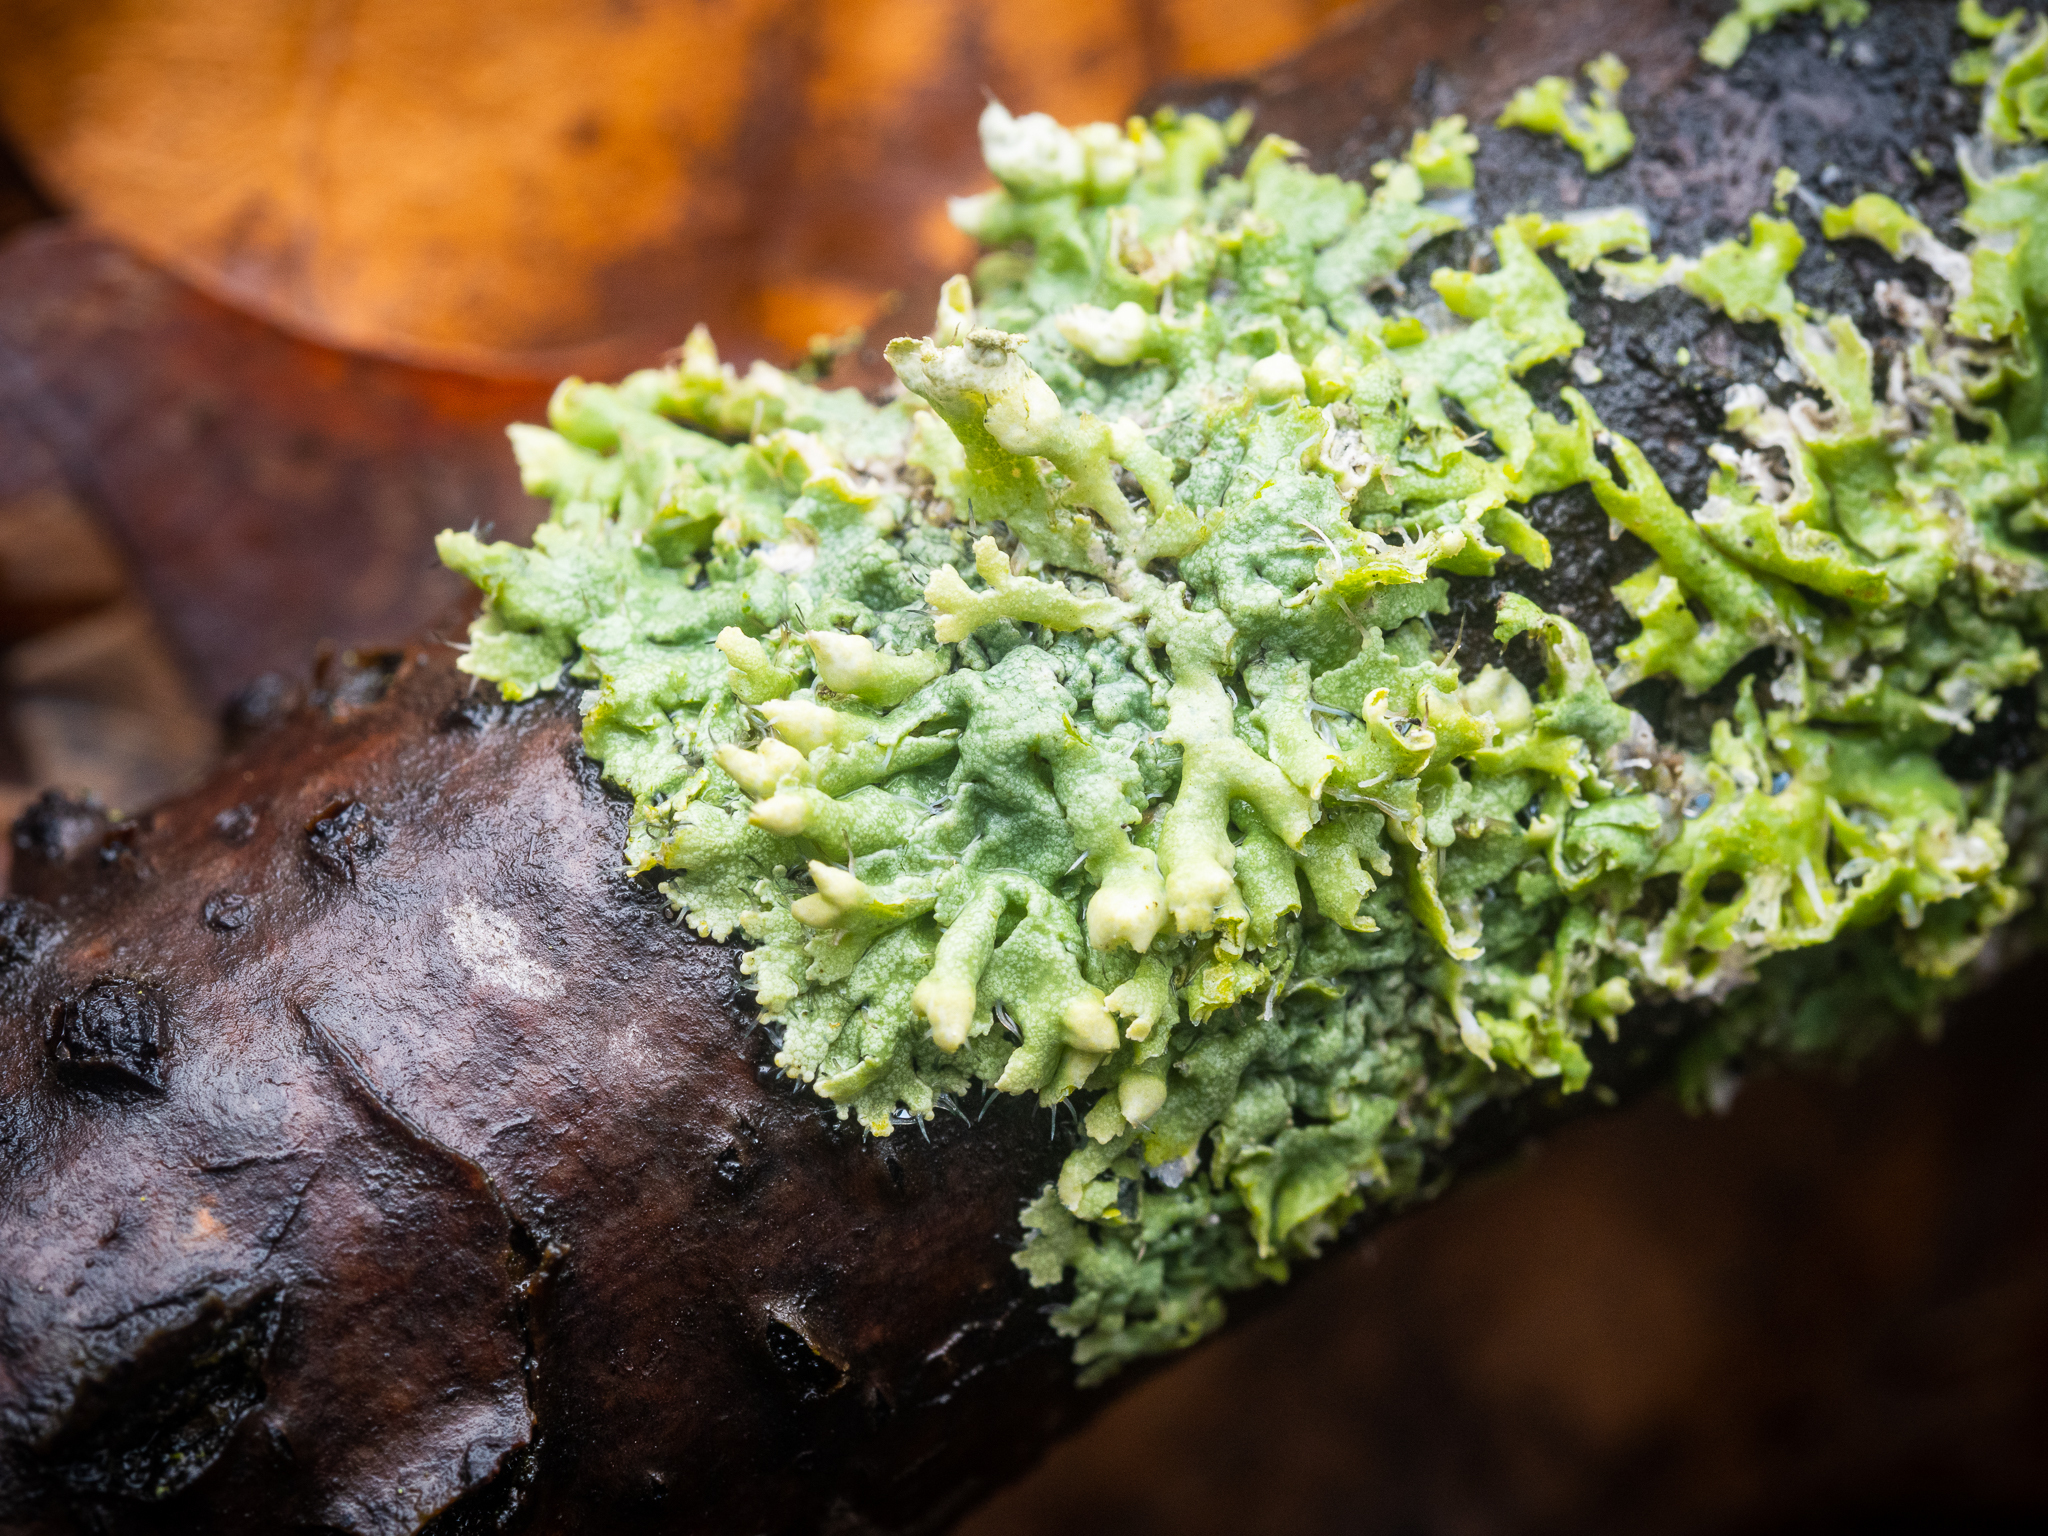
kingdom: Fungi
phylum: Ascomycota
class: Lecanoromycetes
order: Caliciales
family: Physciaceae
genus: Physcia
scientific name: Physcia adscendens
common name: Hooded rosette lichen
